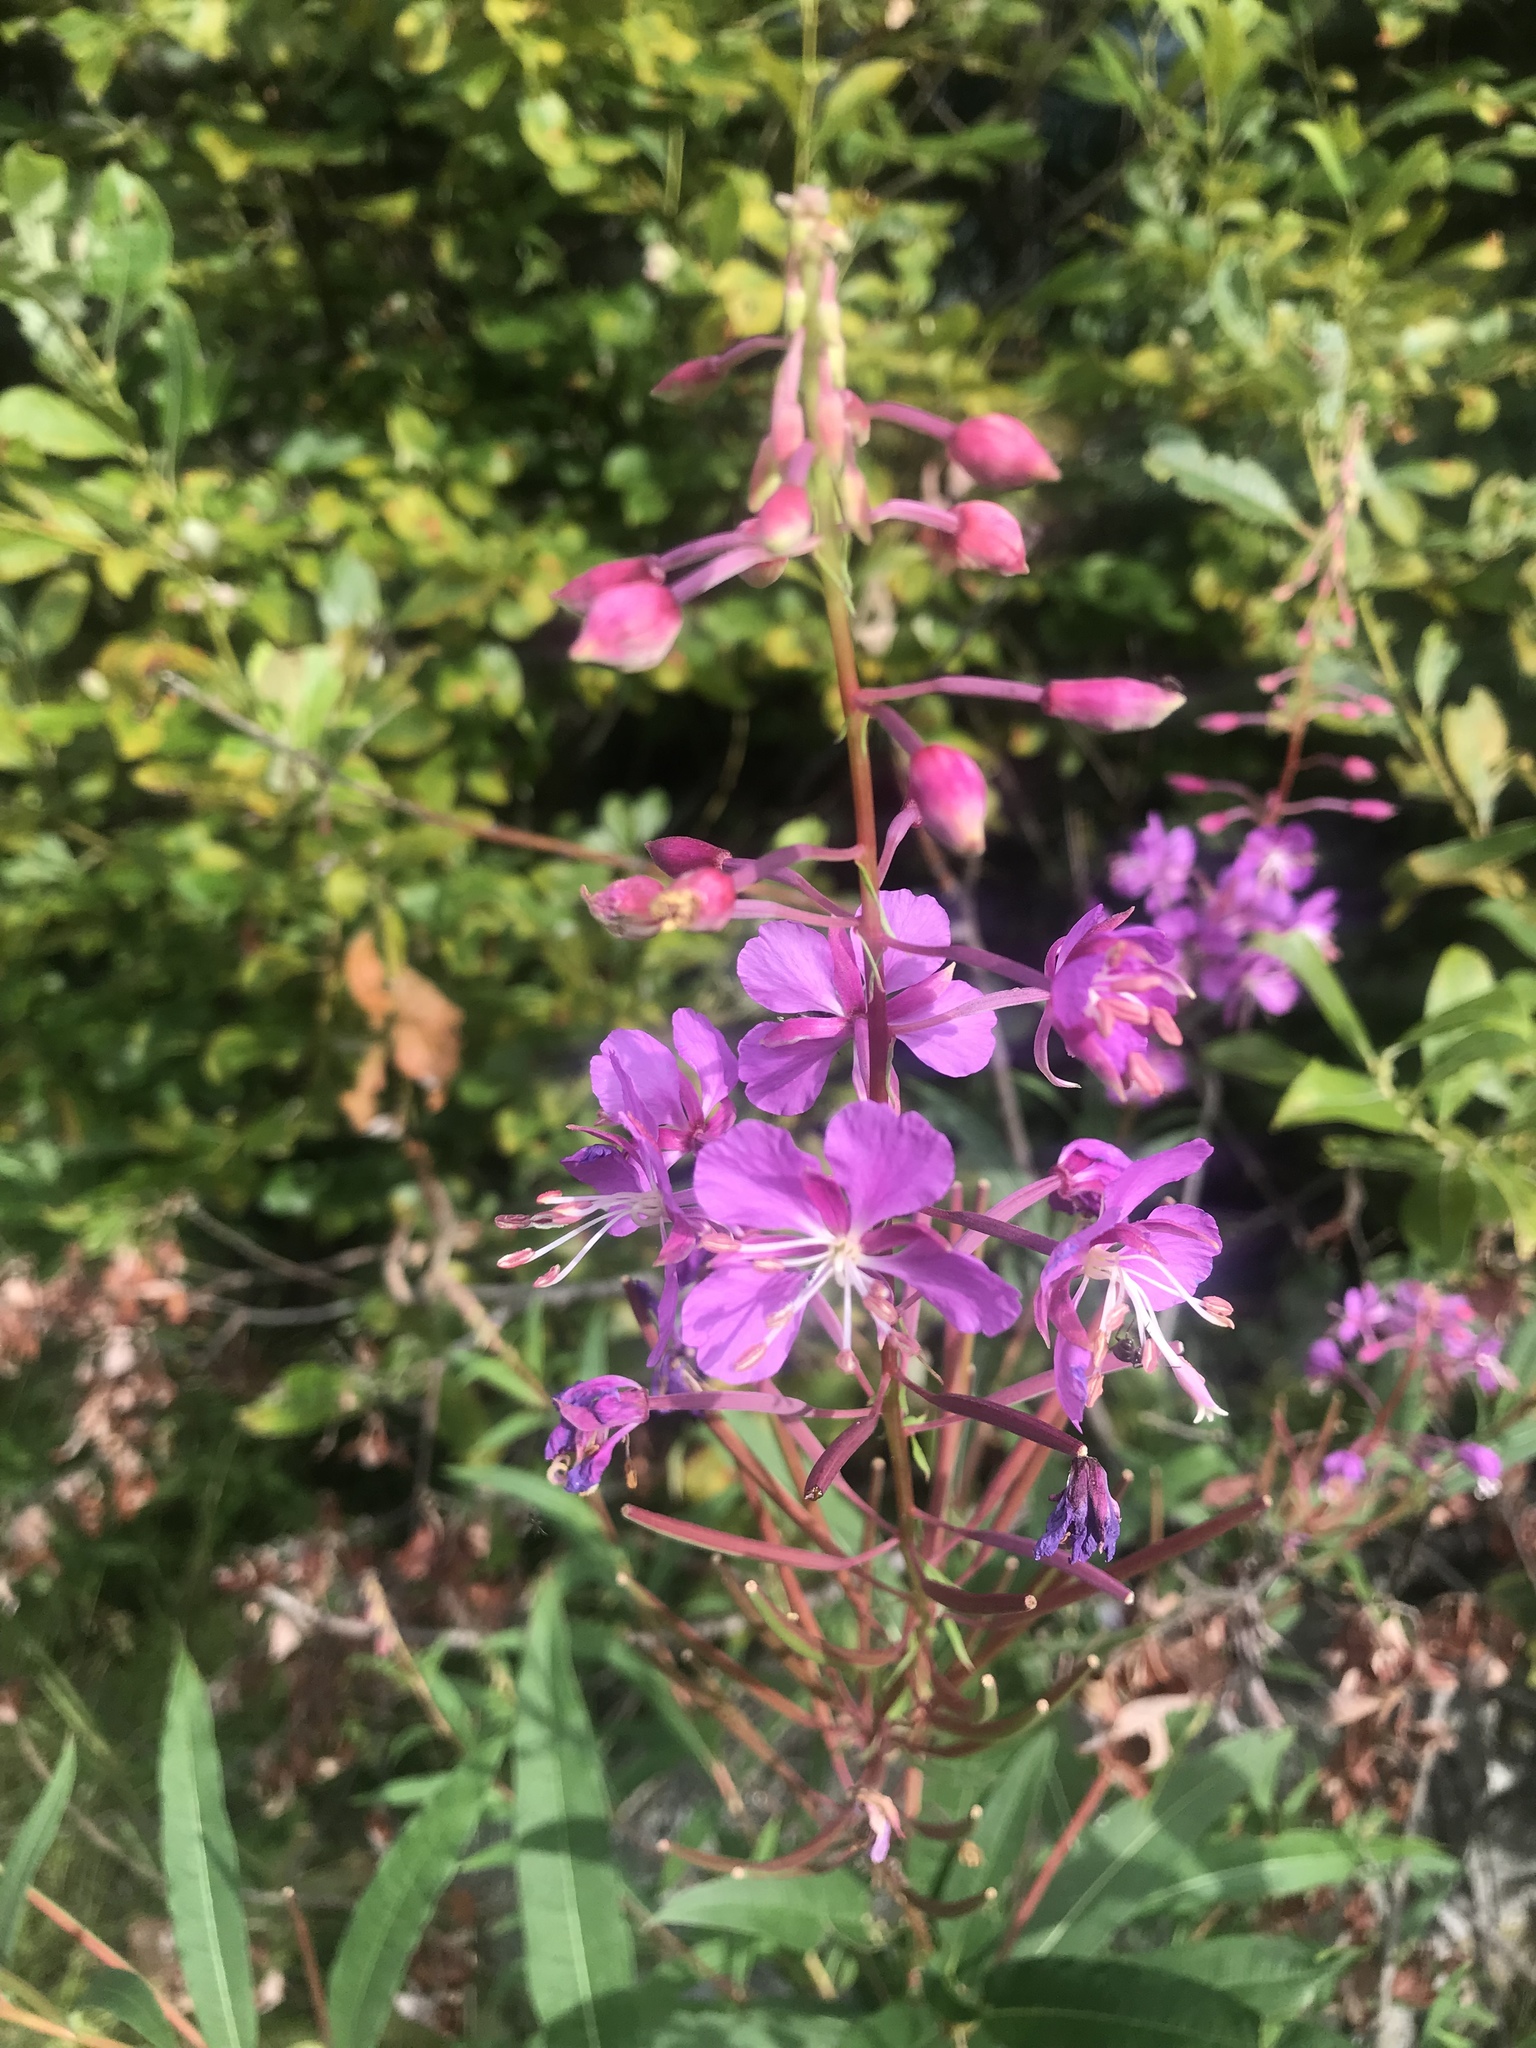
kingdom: Plantae
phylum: Tracheophyta
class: Magnoliopsida
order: Myrtales
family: Onagraceae
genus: Chamaenerion
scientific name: Chamaenerion angustifolium
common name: Fireweed
